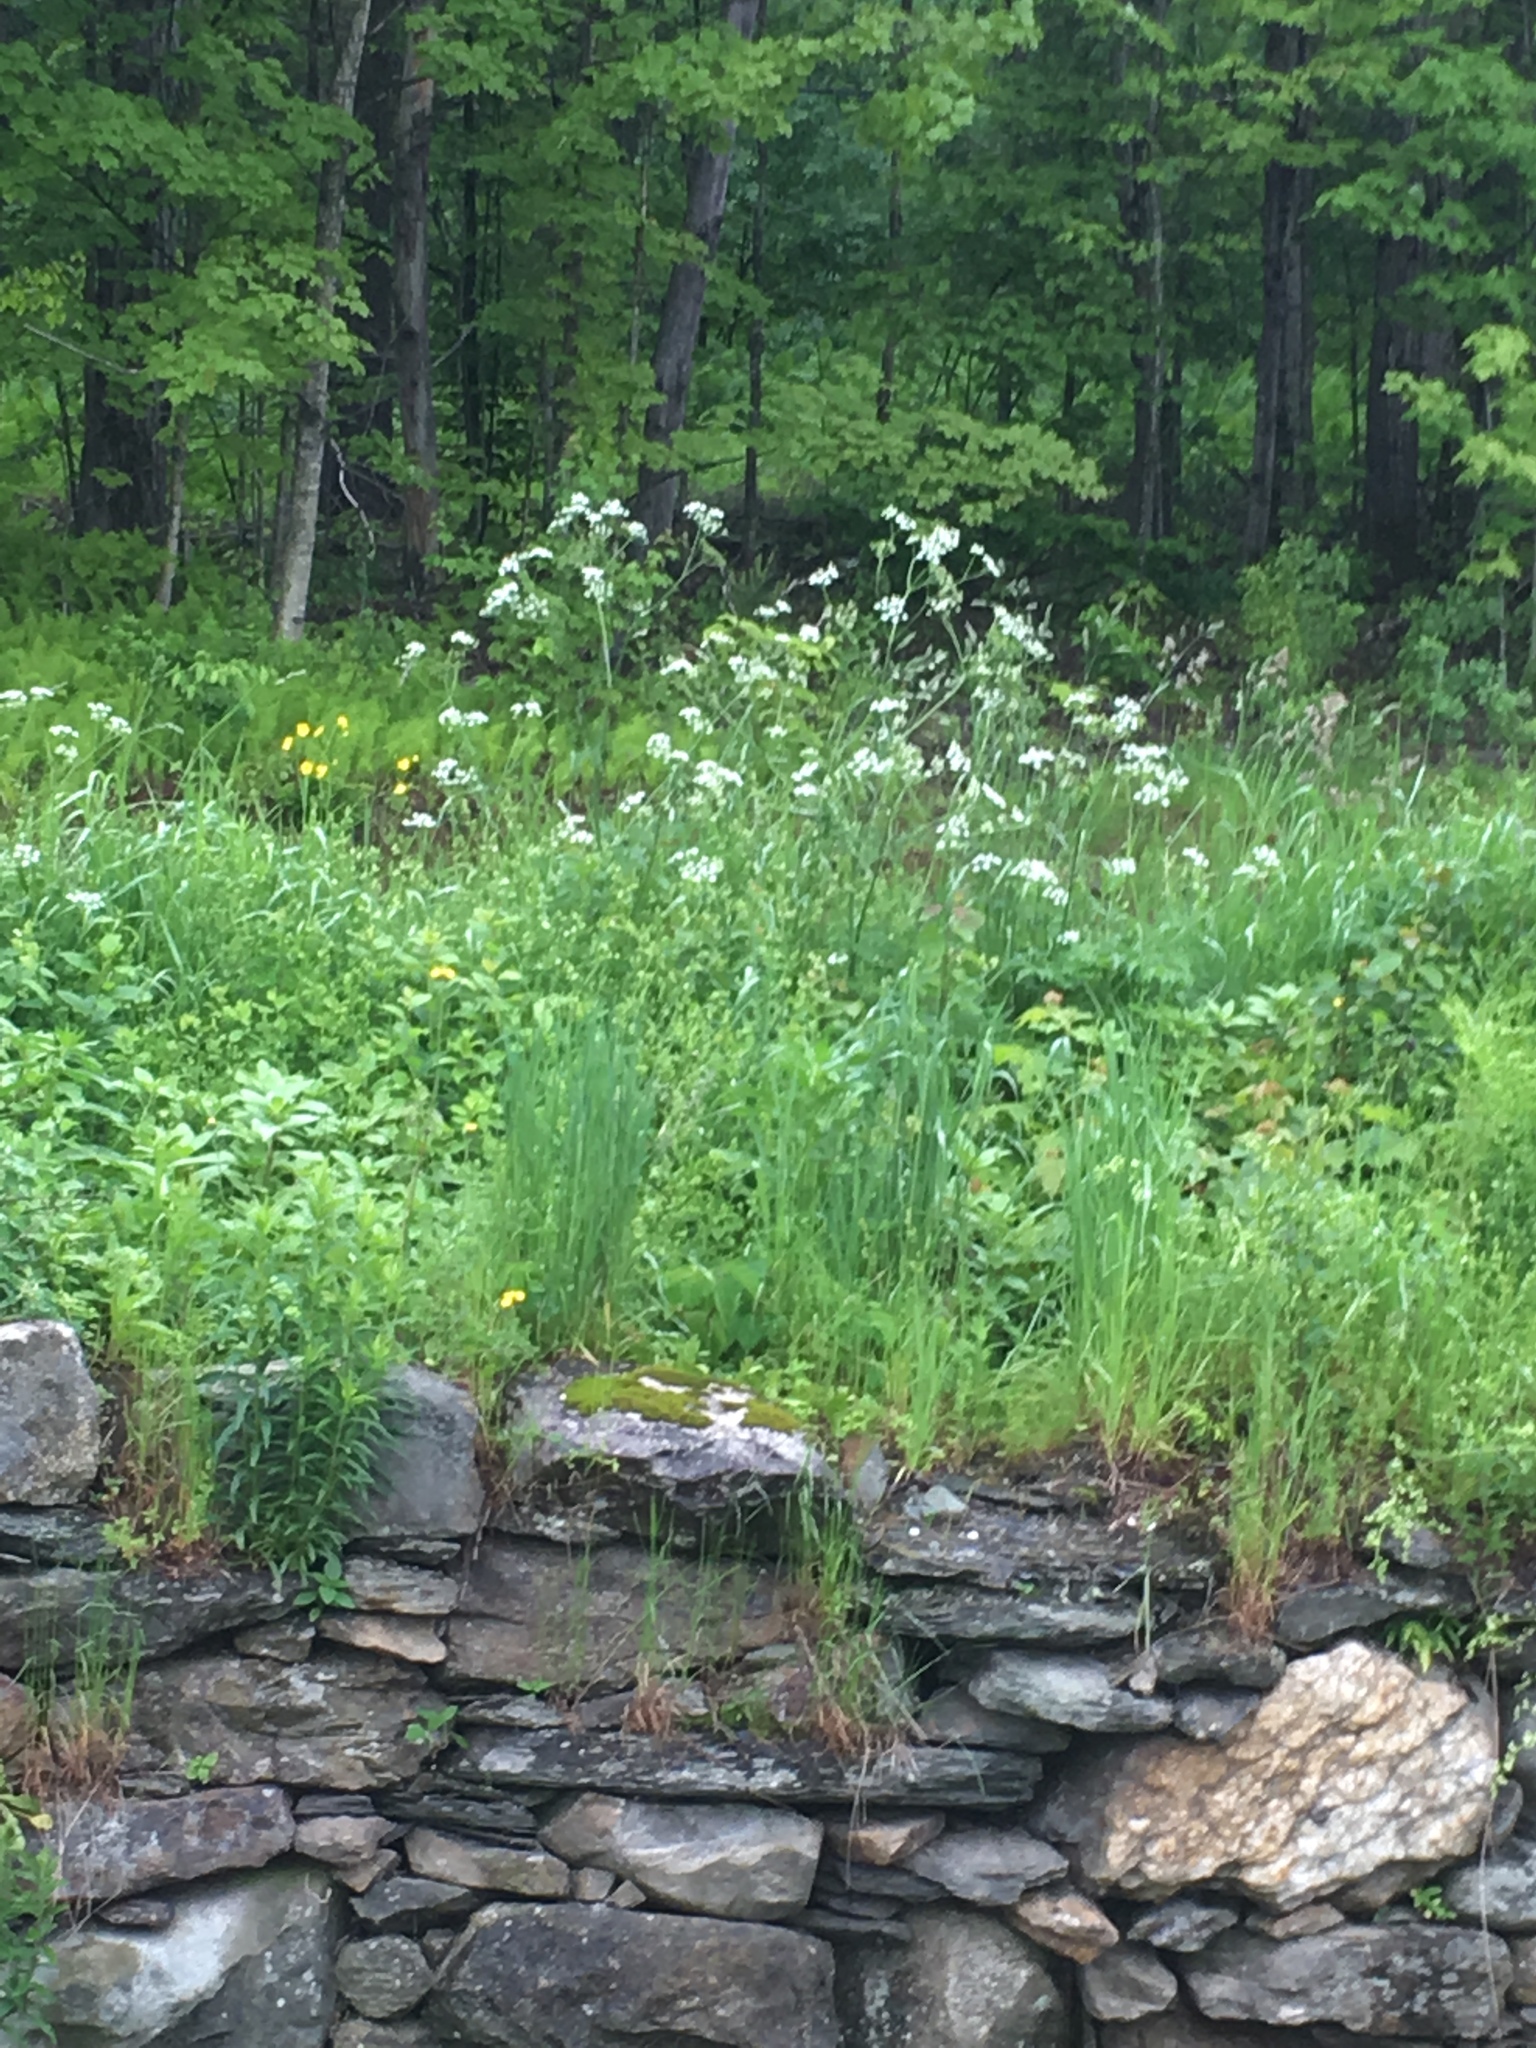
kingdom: Plantae
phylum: Tracheophyta
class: Magnoliopsida
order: Apiales
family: Apiaceae
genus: Anthriscus
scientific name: Anthriscus sylvestris
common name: Cow parsley
